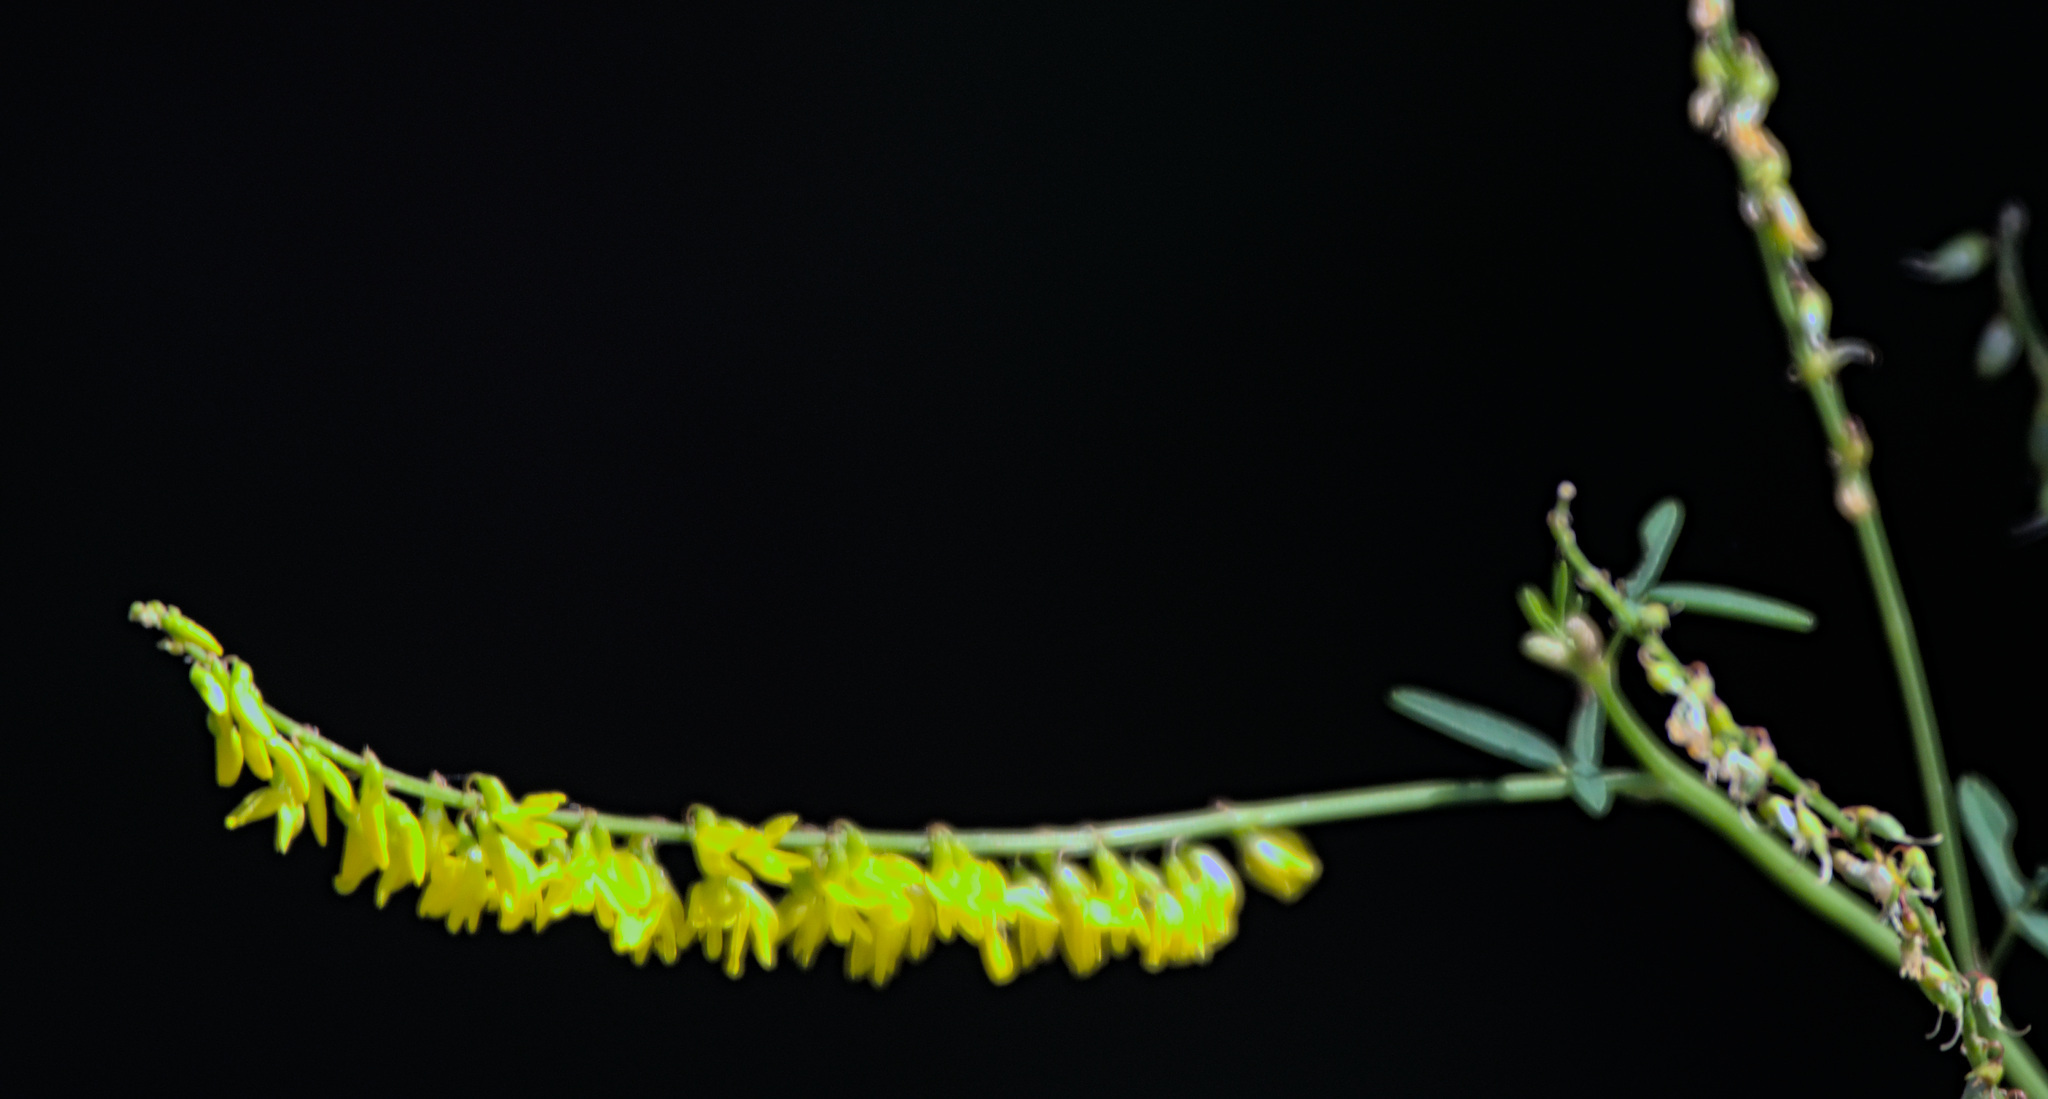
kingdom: Plantae
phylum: Tracheophyta
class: Magnoliopsida
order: Fabales
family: Fabaceae
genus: Melilotus
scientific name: Melilotus officinalis
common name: Sweetclover
